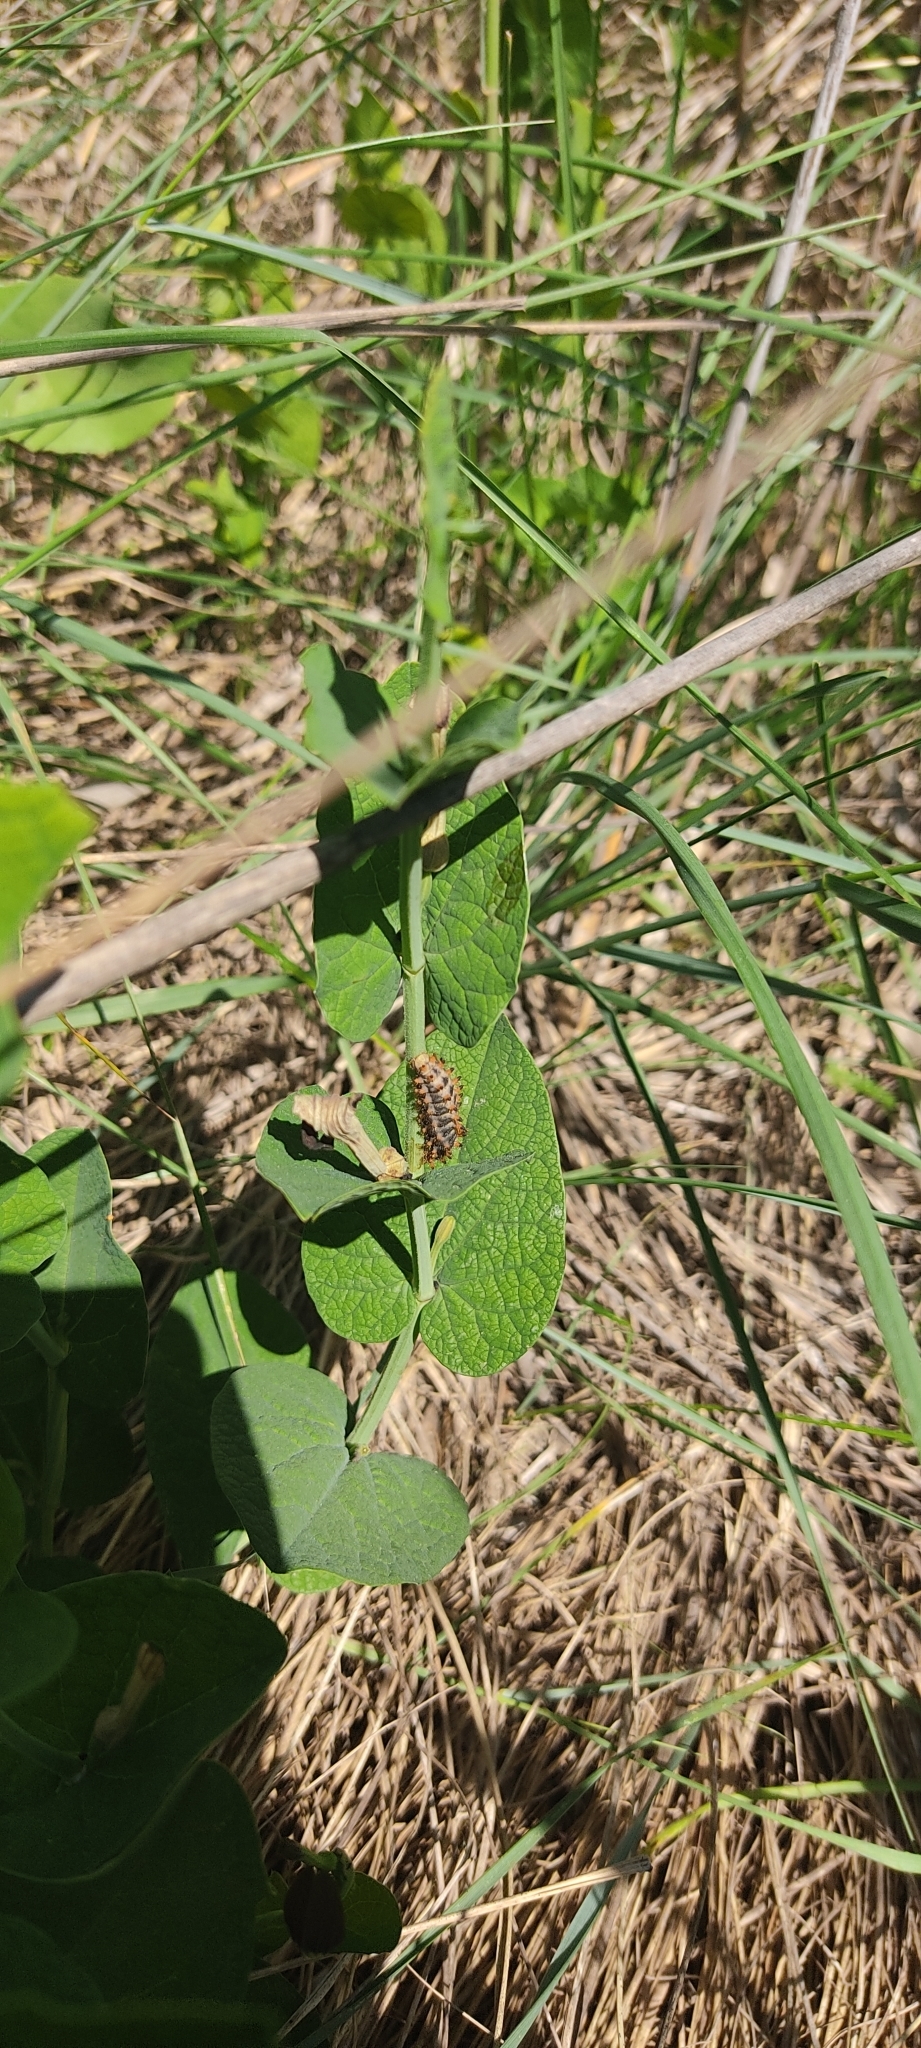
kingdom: Animalia
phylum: Arthropoda
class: Insecta
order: Lepidoptera
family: Papilionidae
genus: Zerynthia
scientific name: Zerynthia polyxena
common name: Southern festoon
